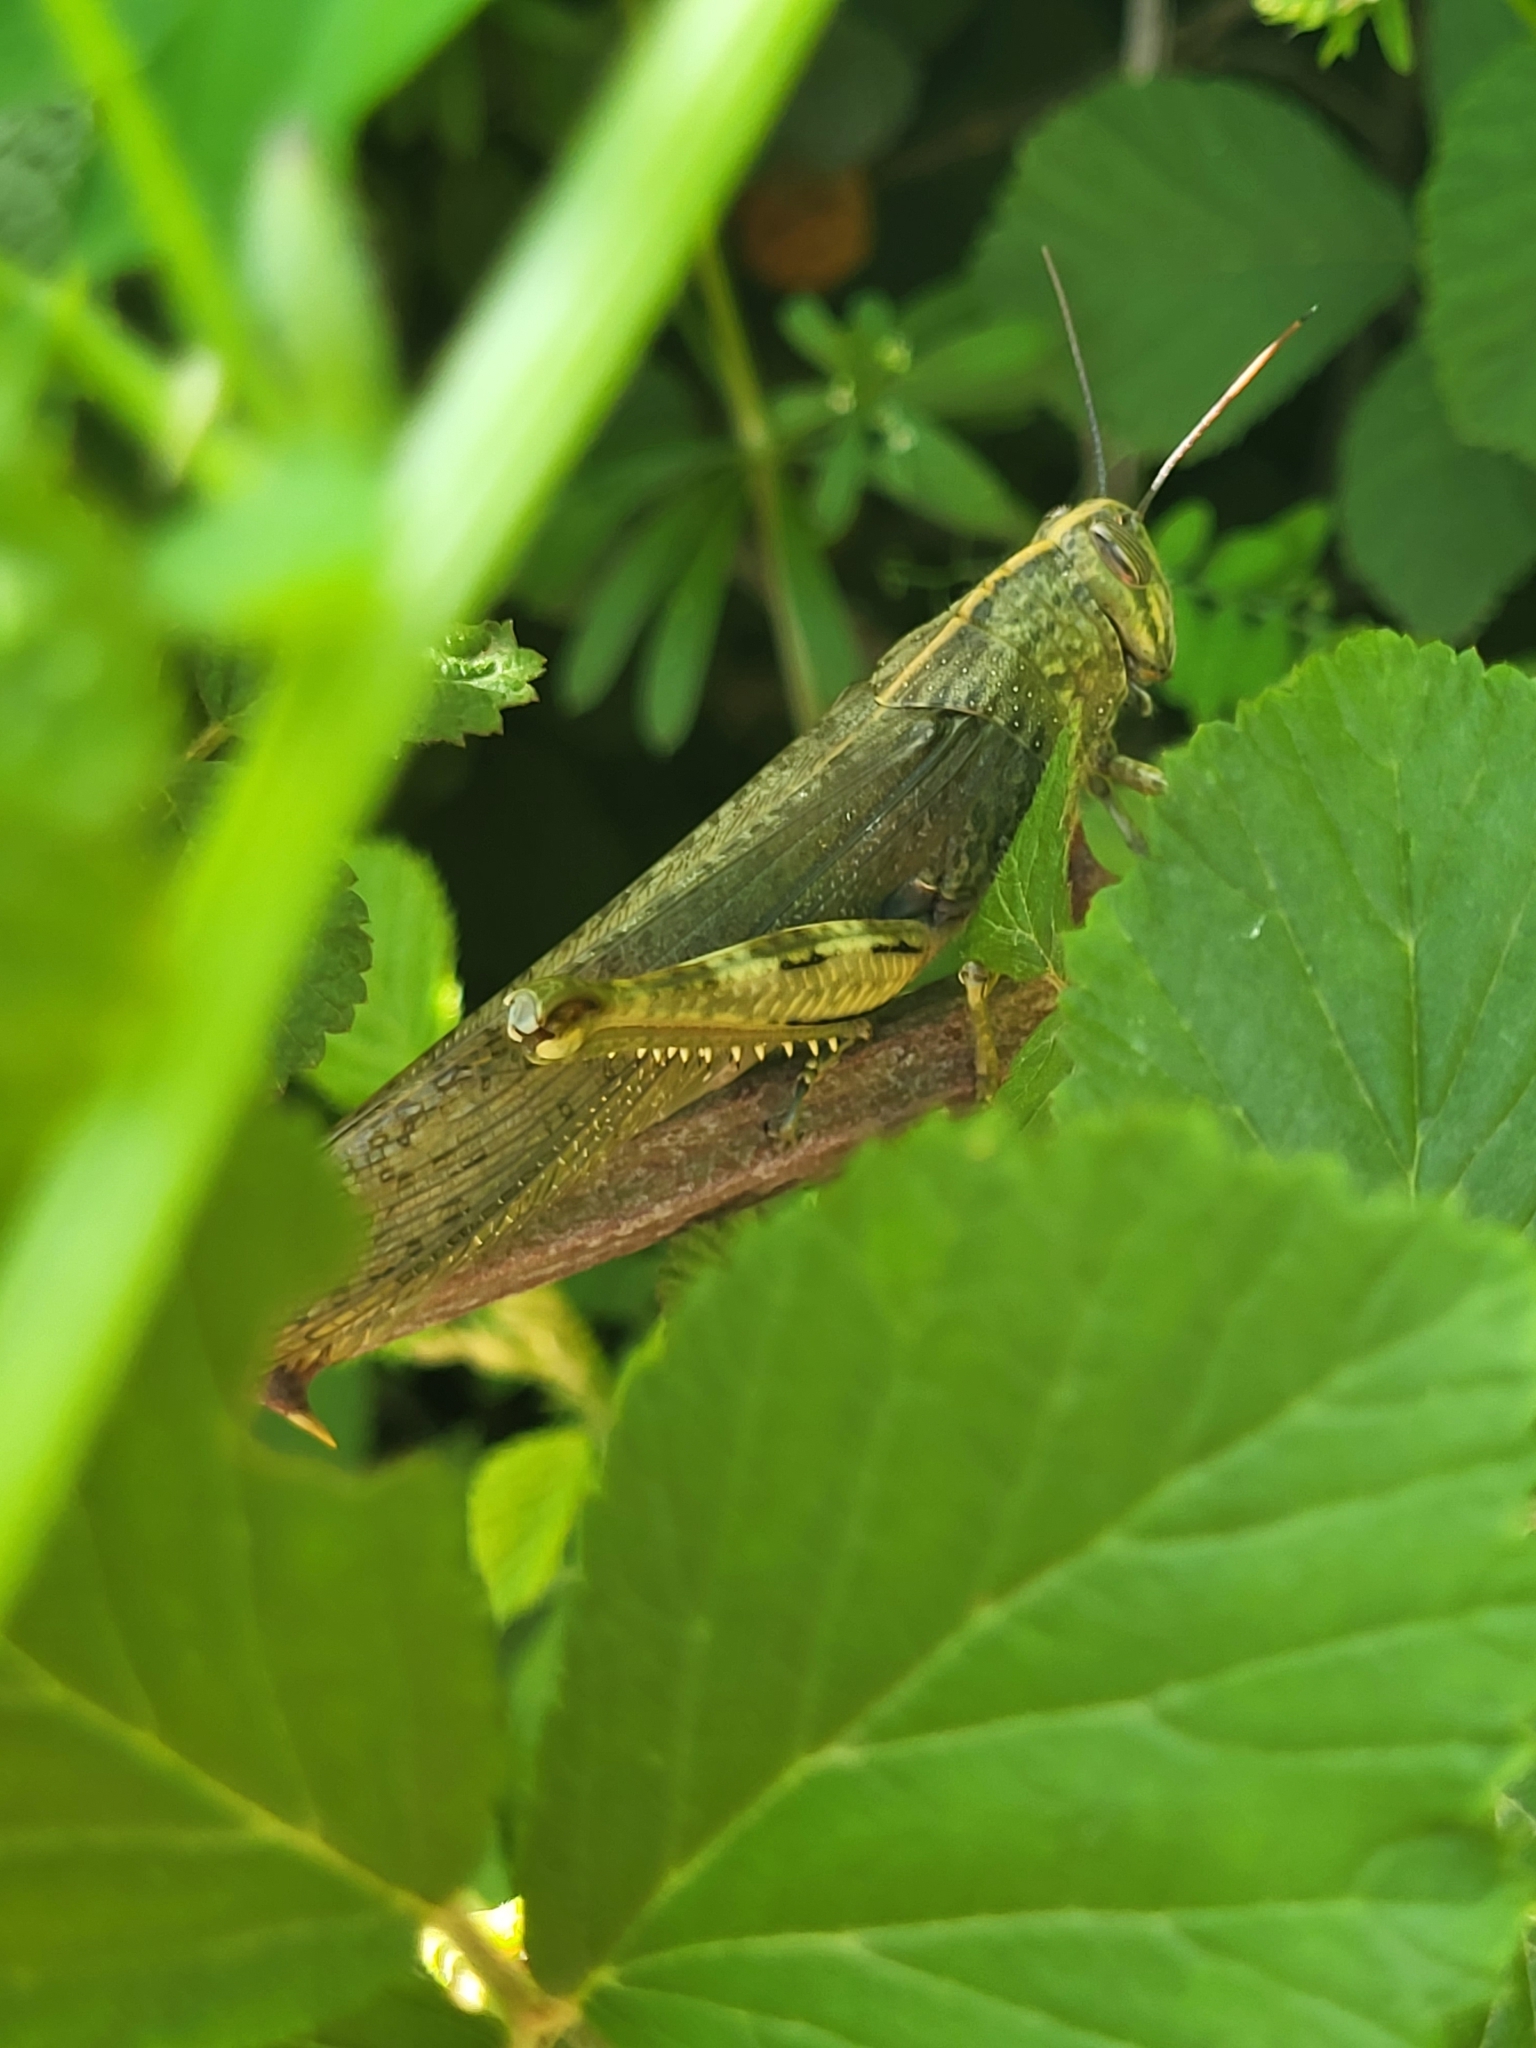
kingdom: Animalia
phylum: Arthropoda
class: Insecta
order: Orthoptera
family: Acrididae
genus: Anacridium
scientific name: Anacridium aegyptium
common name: Egyptian grasshopper
